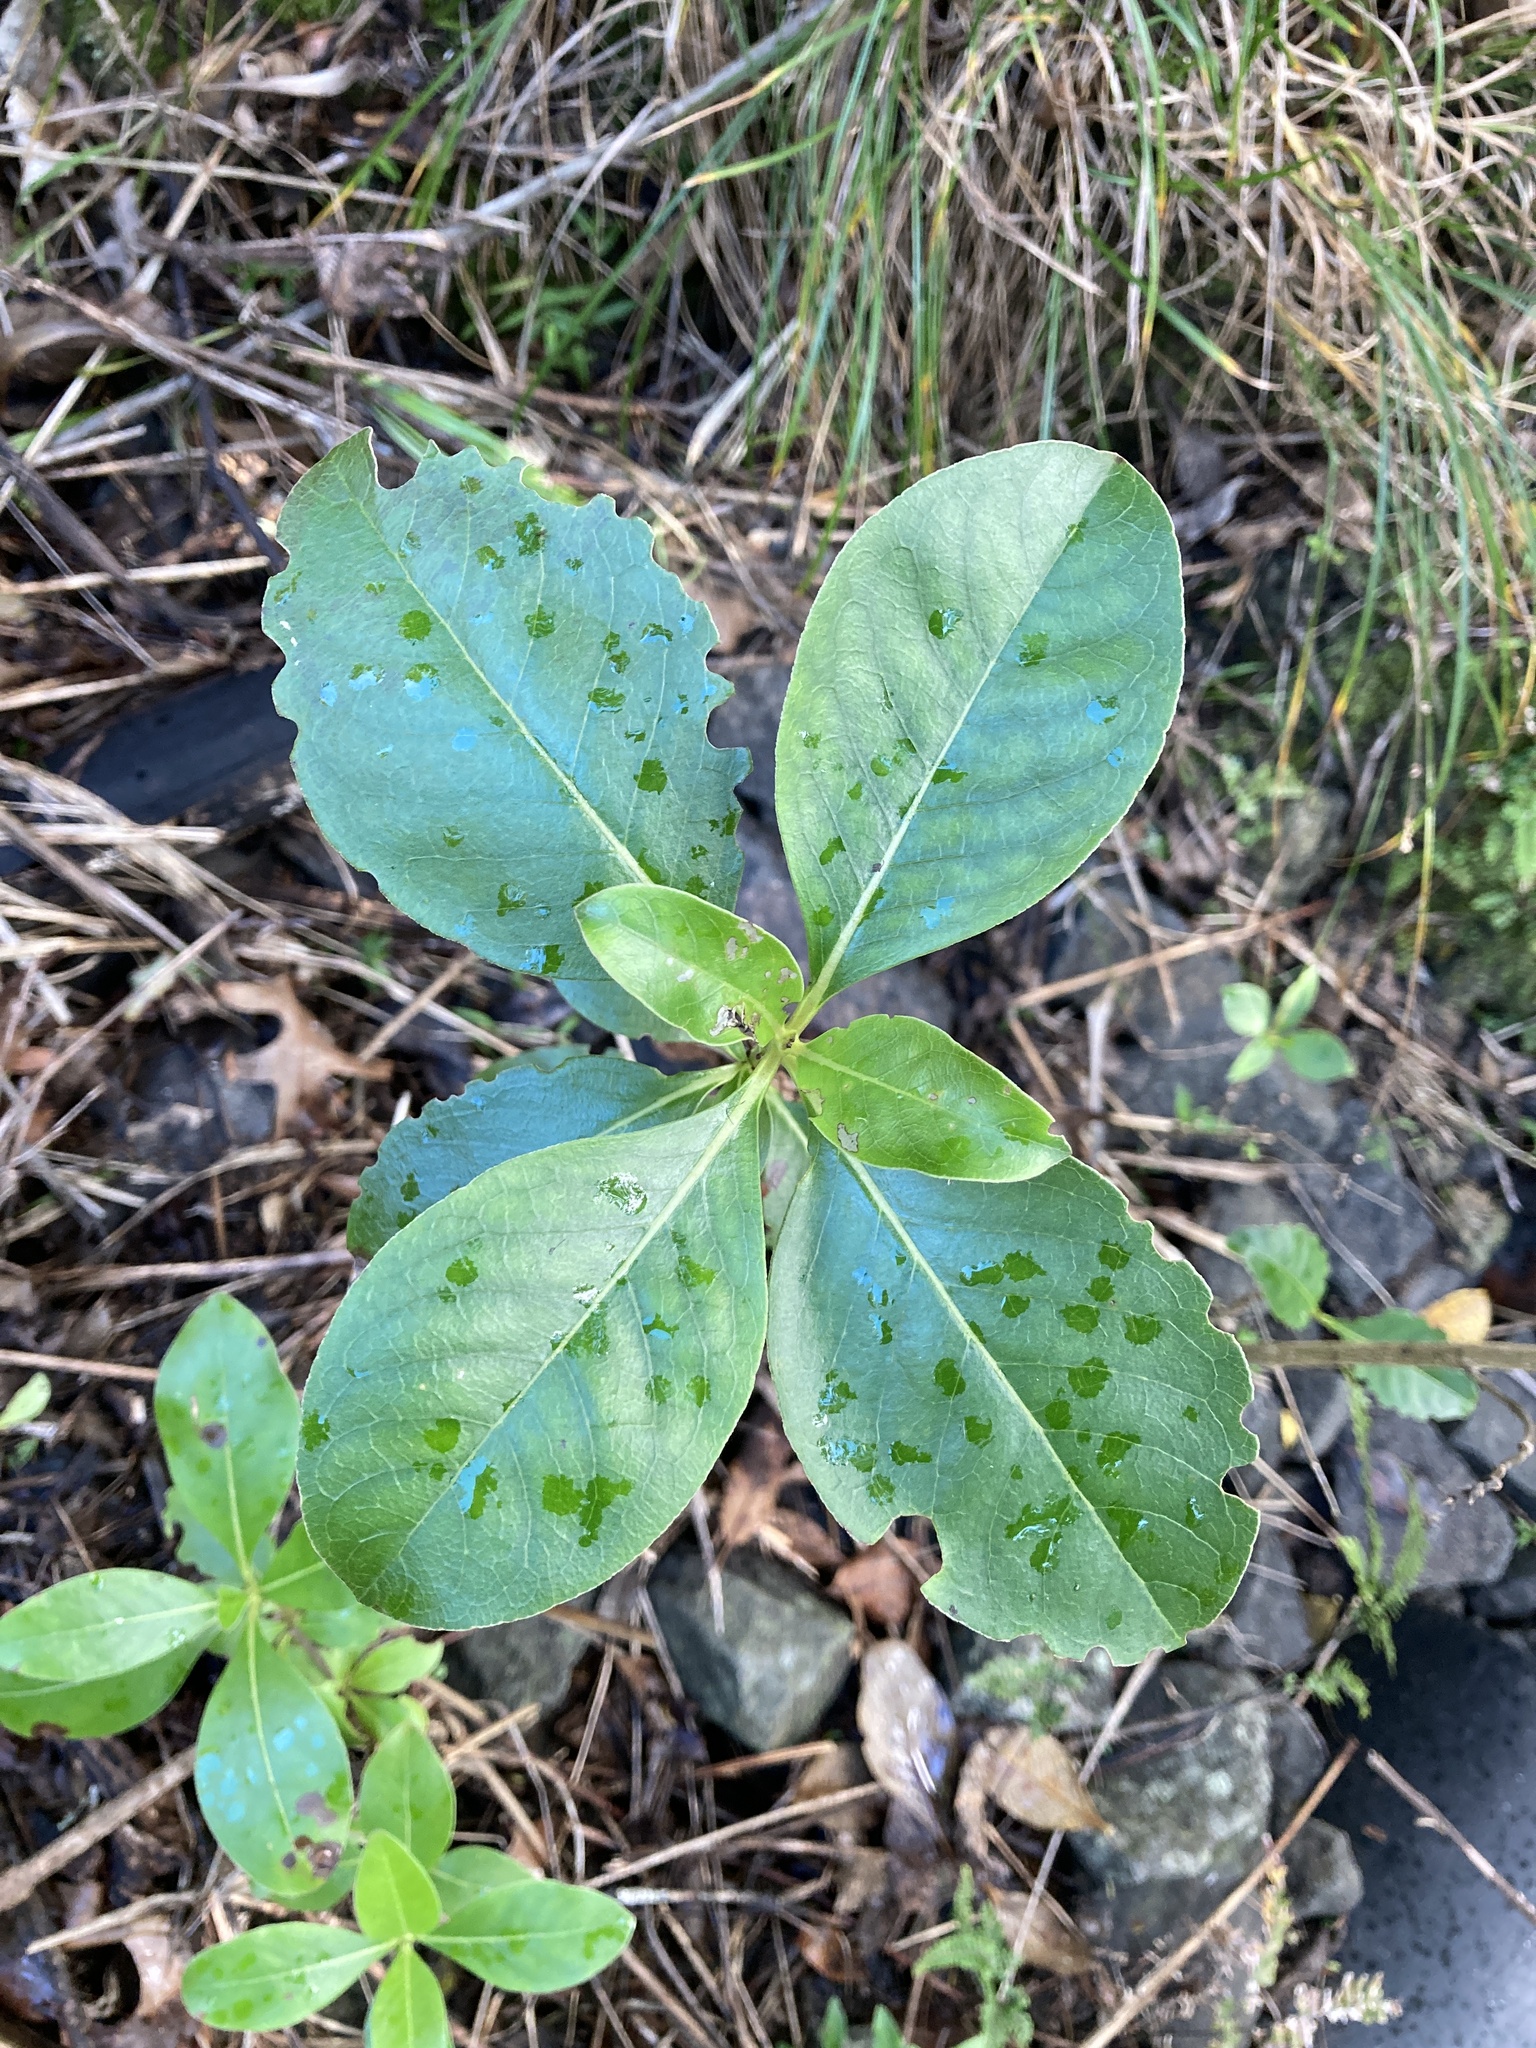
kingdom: Plantae
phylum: Tracheophyta
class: Magnoliopsida
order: Gentianales
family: Rubiaceae
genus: Coprosma
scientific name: Coprosma robusta
